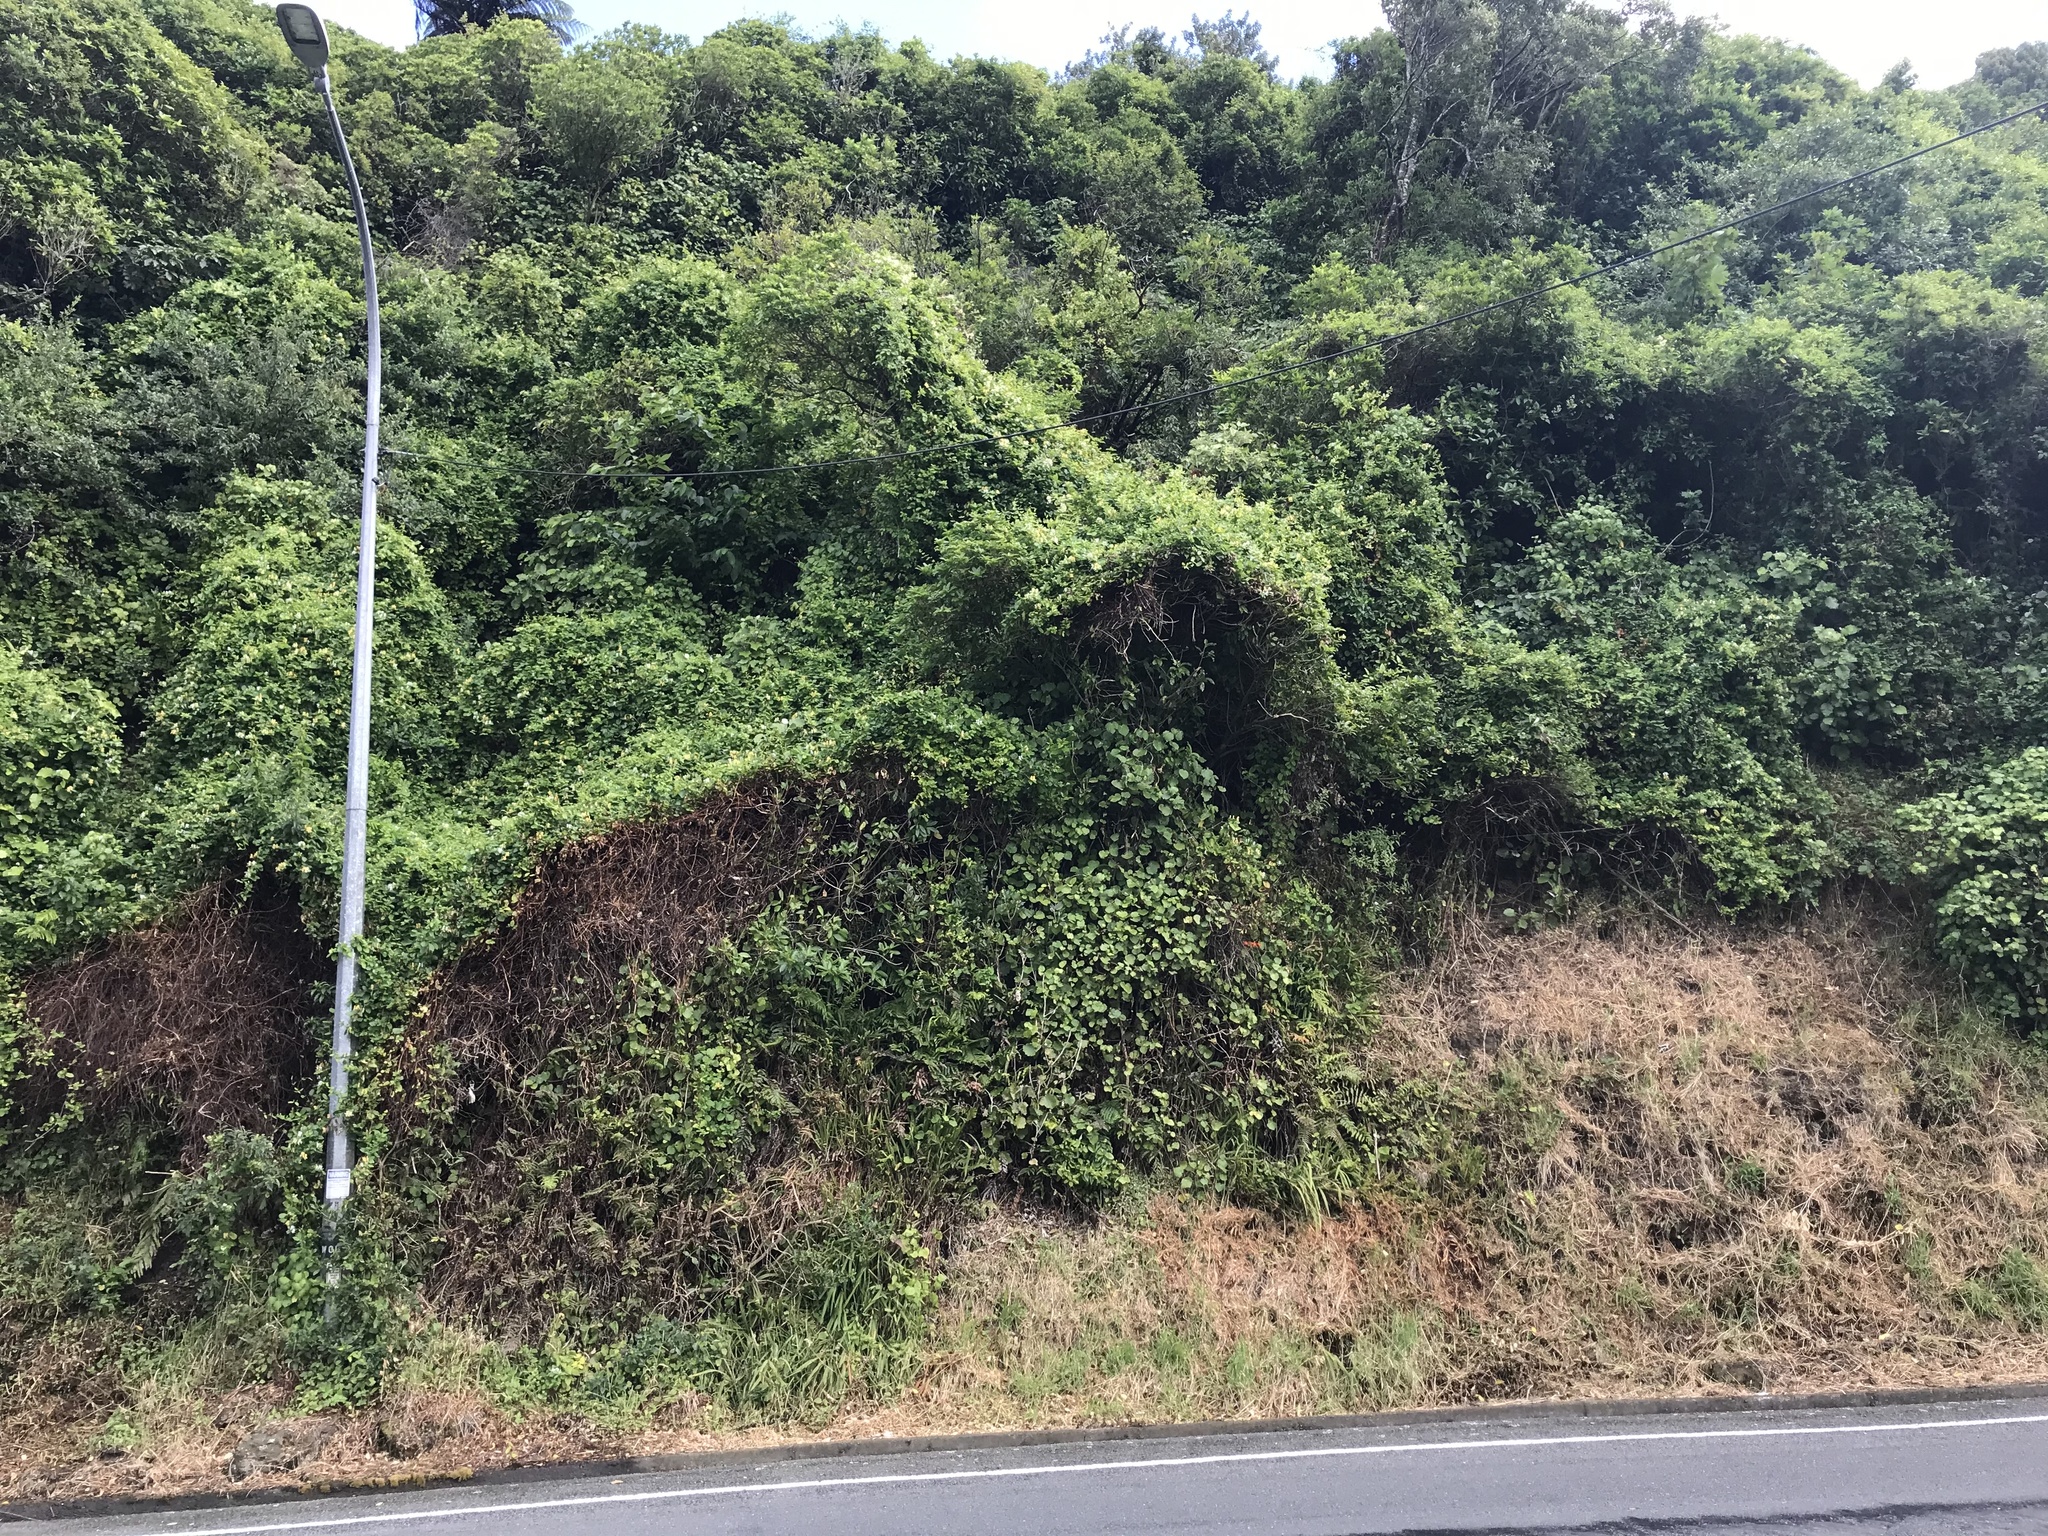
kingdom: Plantae
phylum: Tracheophyta
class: Magnoliopsida
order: Ranunculales
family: Ranunculaceae
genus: Clematis
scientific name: Clematis vitalba
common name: Evergreen clematis
